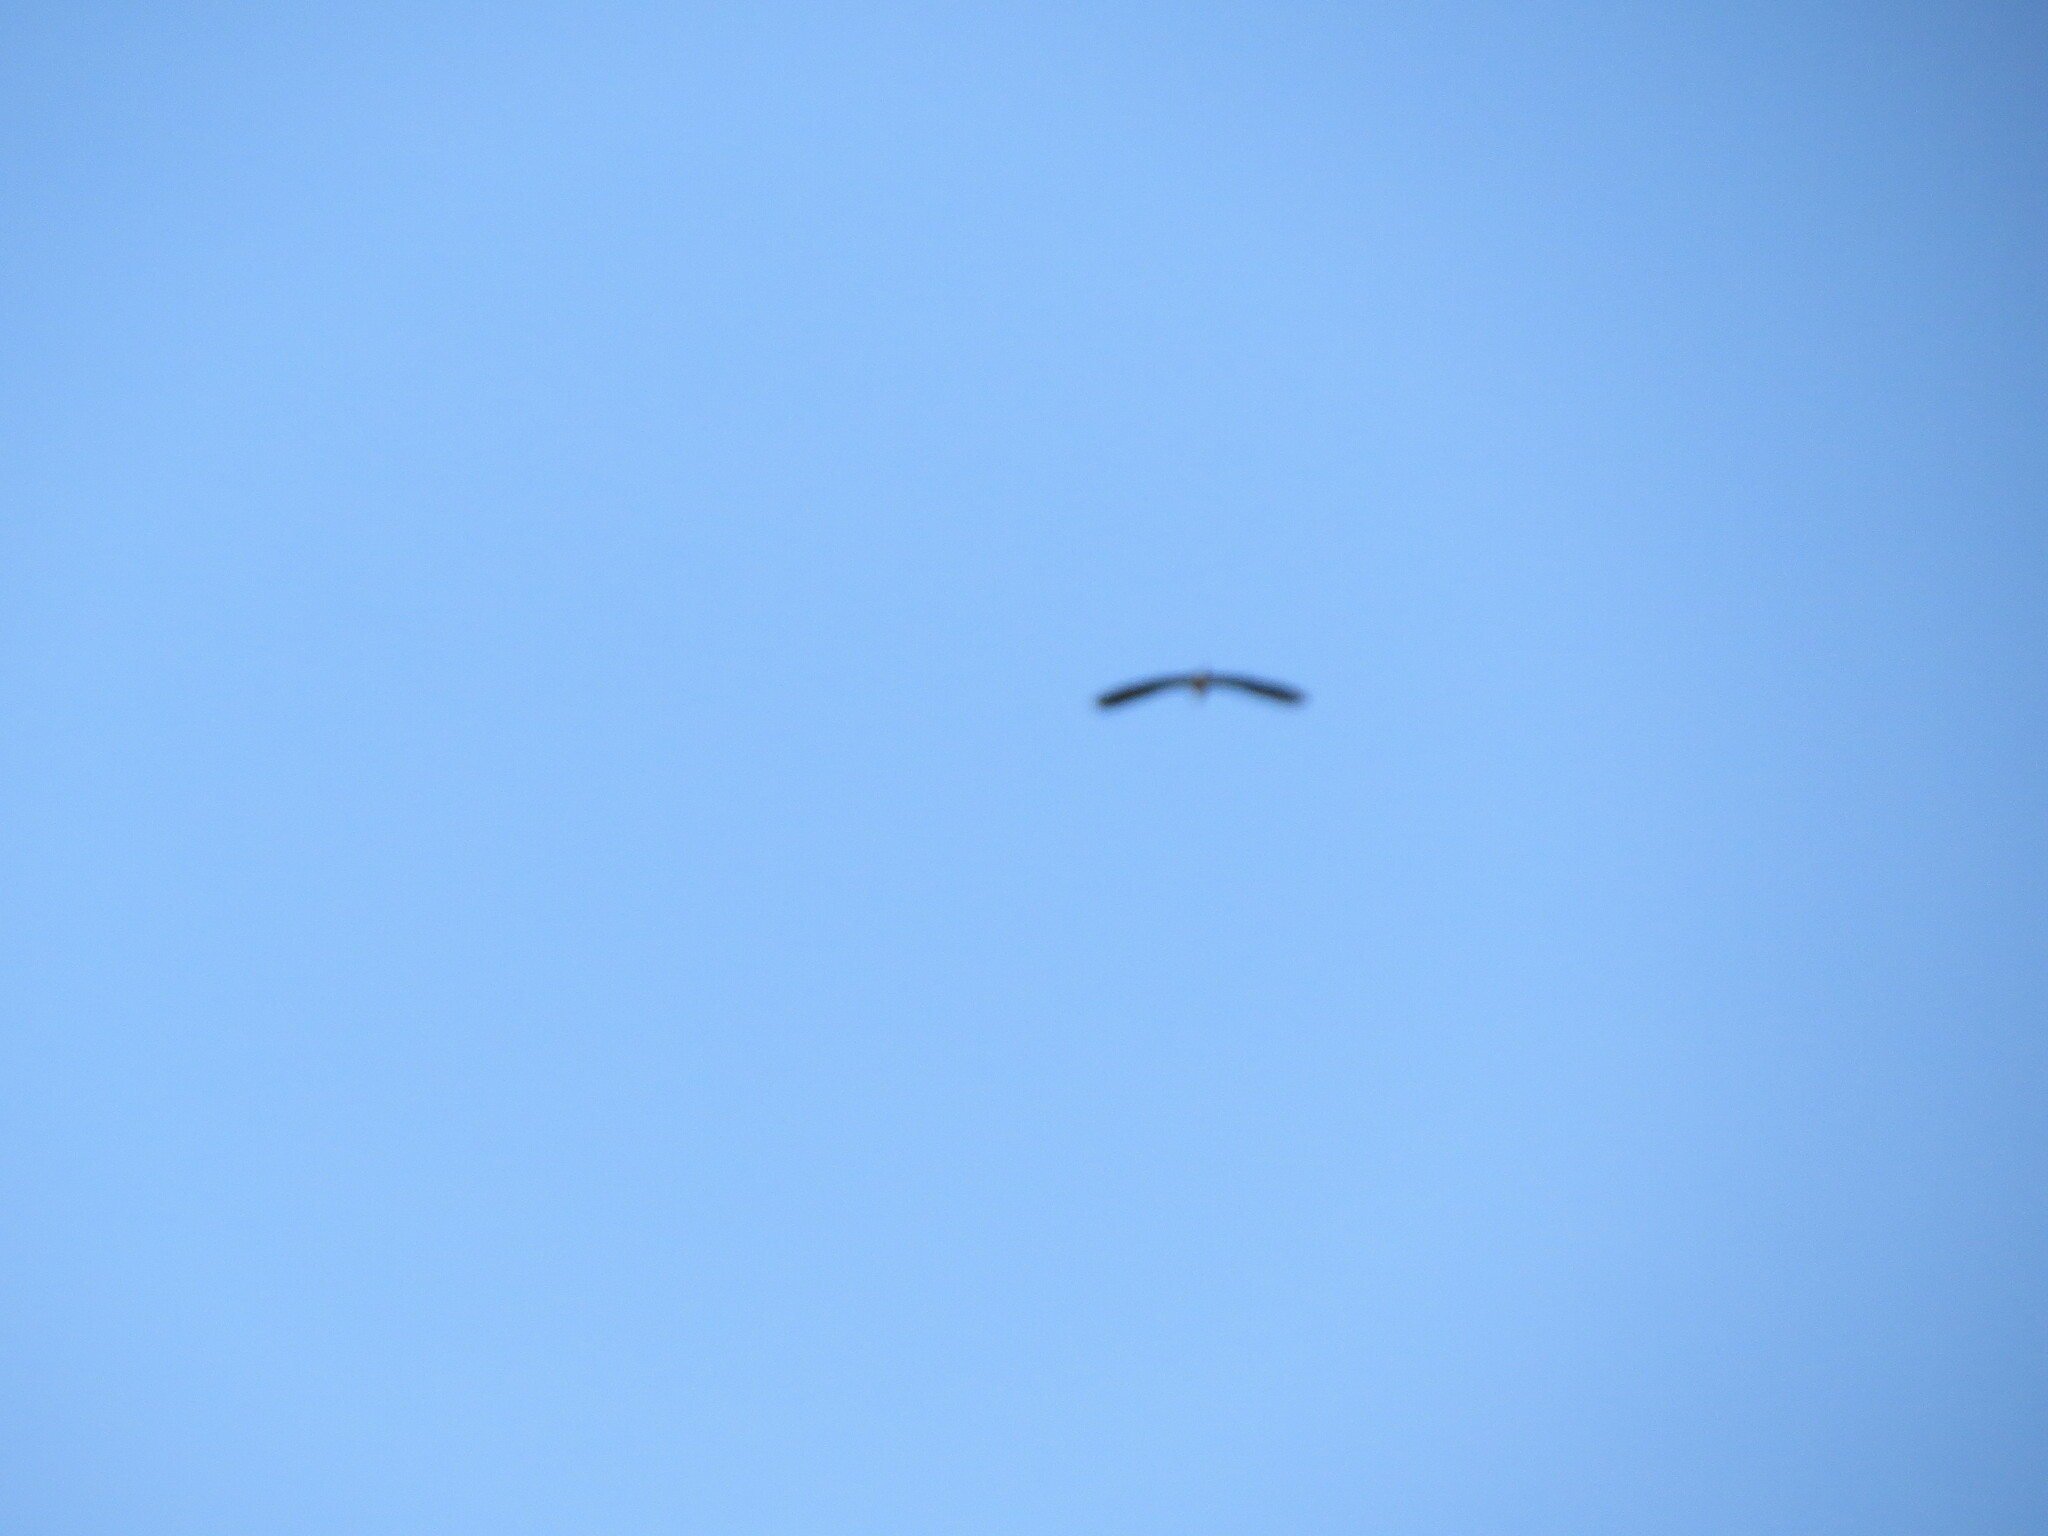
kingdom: Animalia
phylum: Chordata
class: Aves
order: Pelecaniformes
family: Ardeidae
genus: Ardea
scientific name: Ardea cinerea
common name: Grey heron
